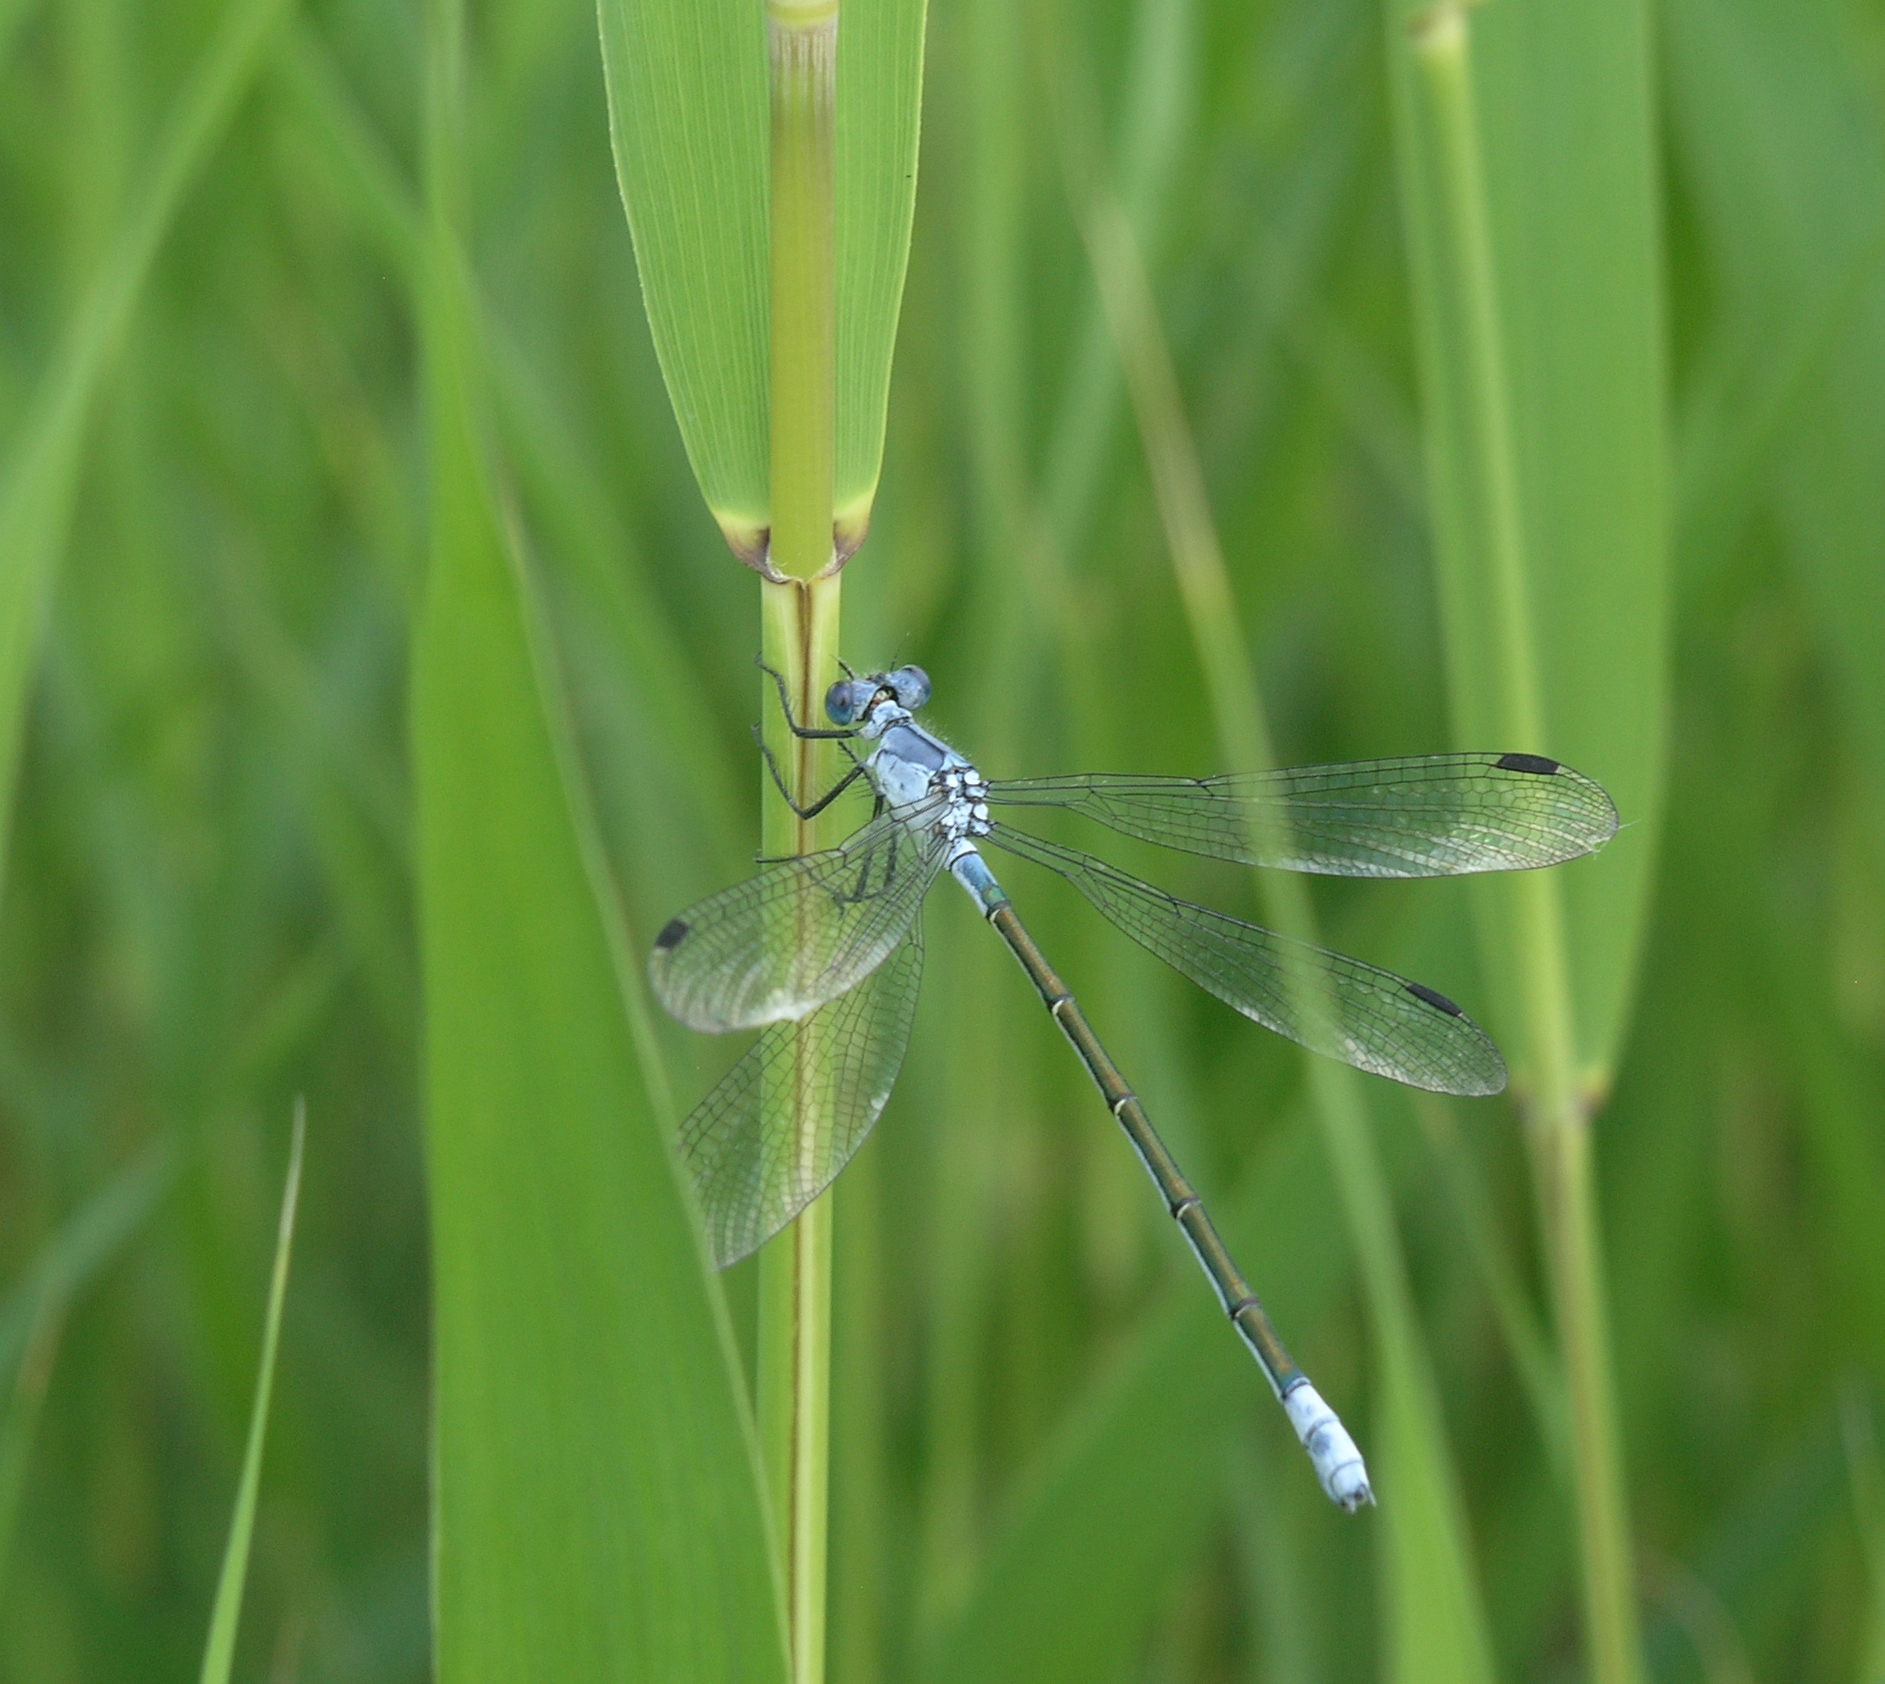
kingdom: Animalia
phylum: Arthropoda
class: Insecta
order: Odonata
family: Lestidae
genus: Lestes
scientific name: Lestes macrostigma
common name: Dark spreadwing
